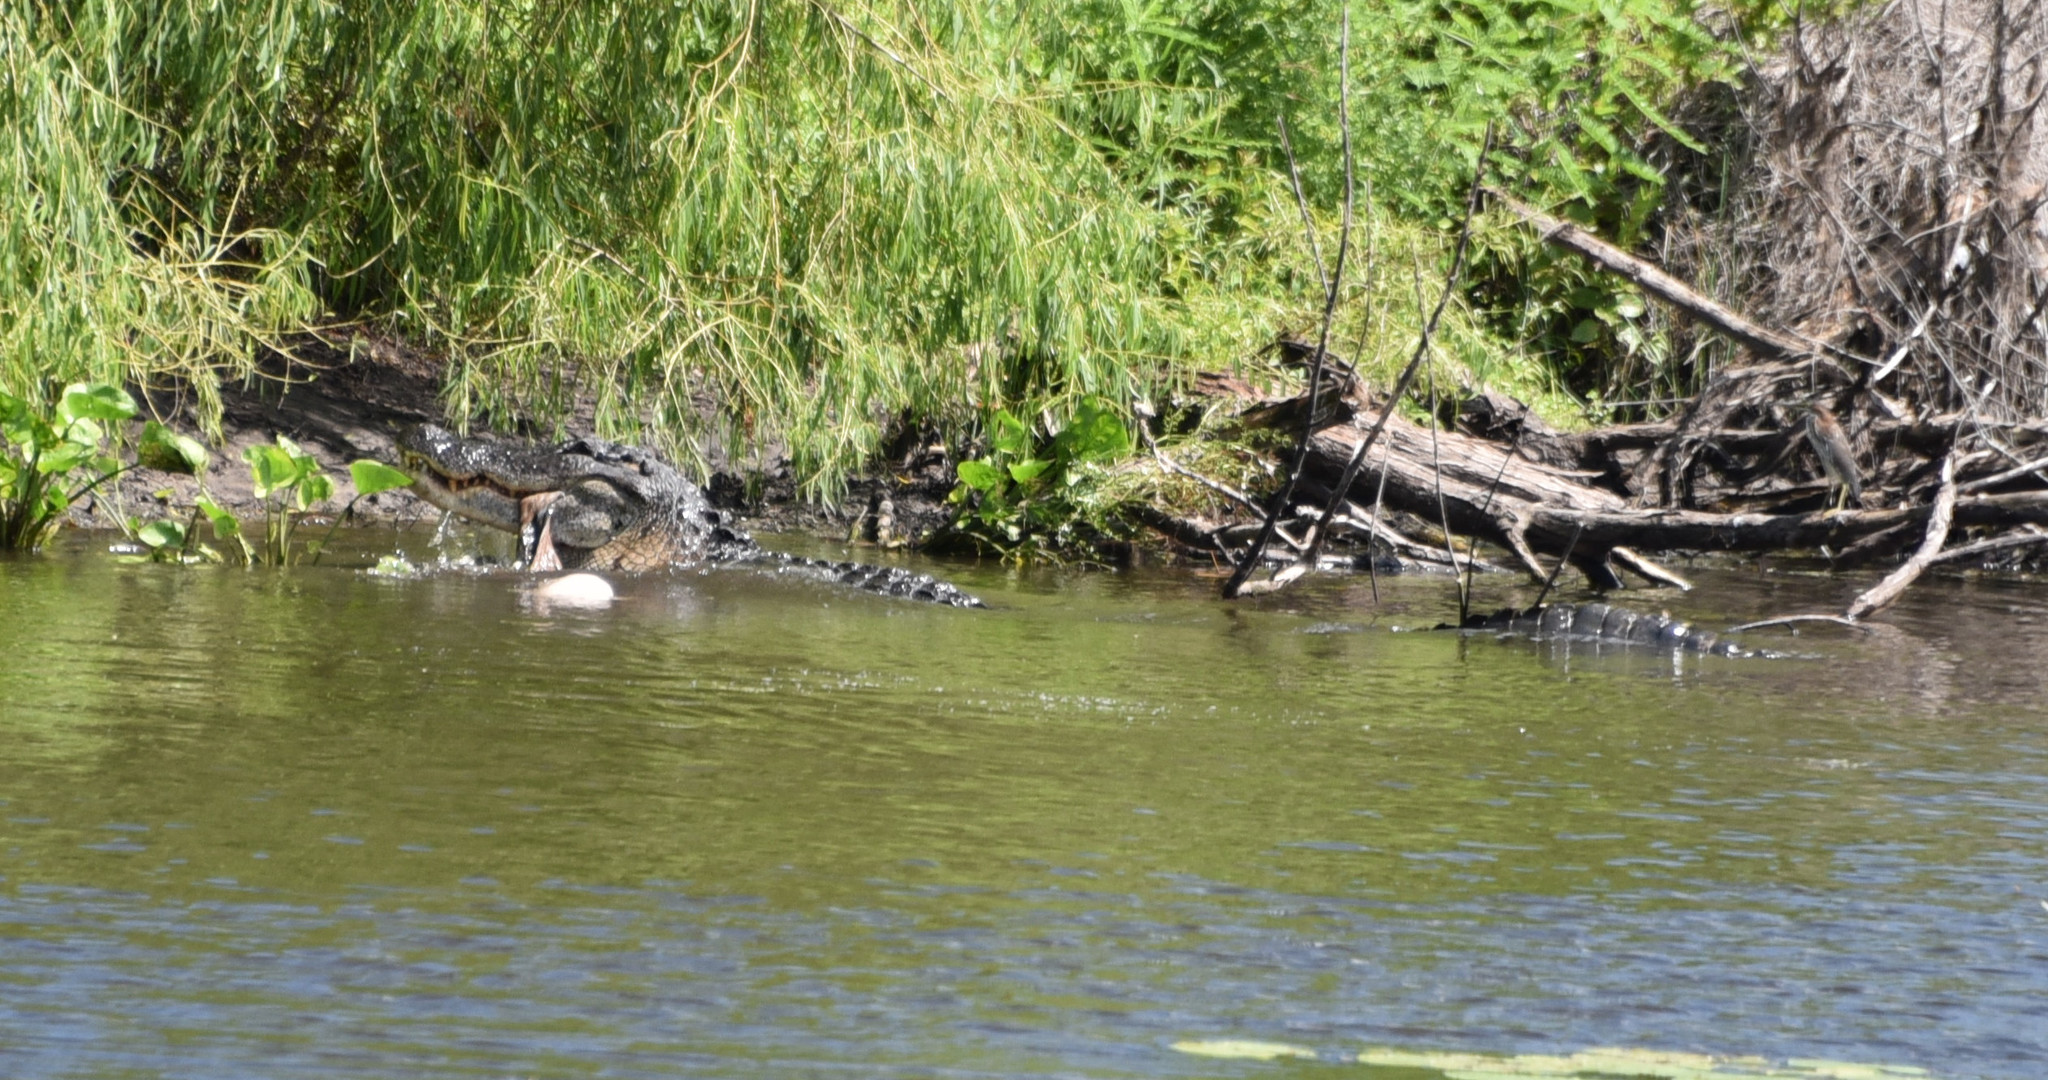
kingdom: Animalia
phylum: Chordata
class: Crocodylia
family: Alligatoridae
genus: Alligator
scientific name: Alligator mississippiensis
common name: American alligator
